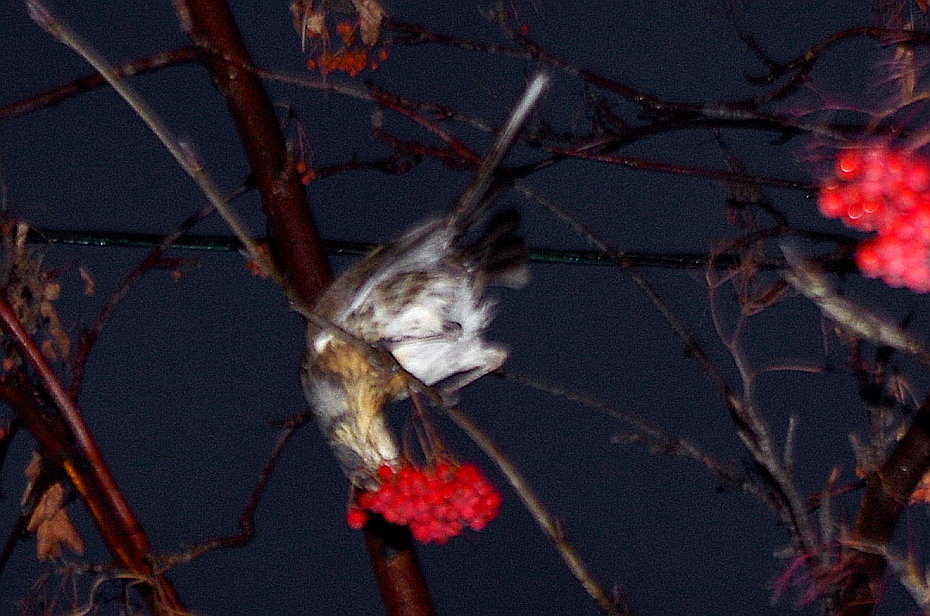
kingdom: Animalia
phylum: Chordata
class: Aves
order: Passeriformes
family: Turdidae
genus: Turdus
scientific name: Turdus pilaris
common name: Fieldfare
